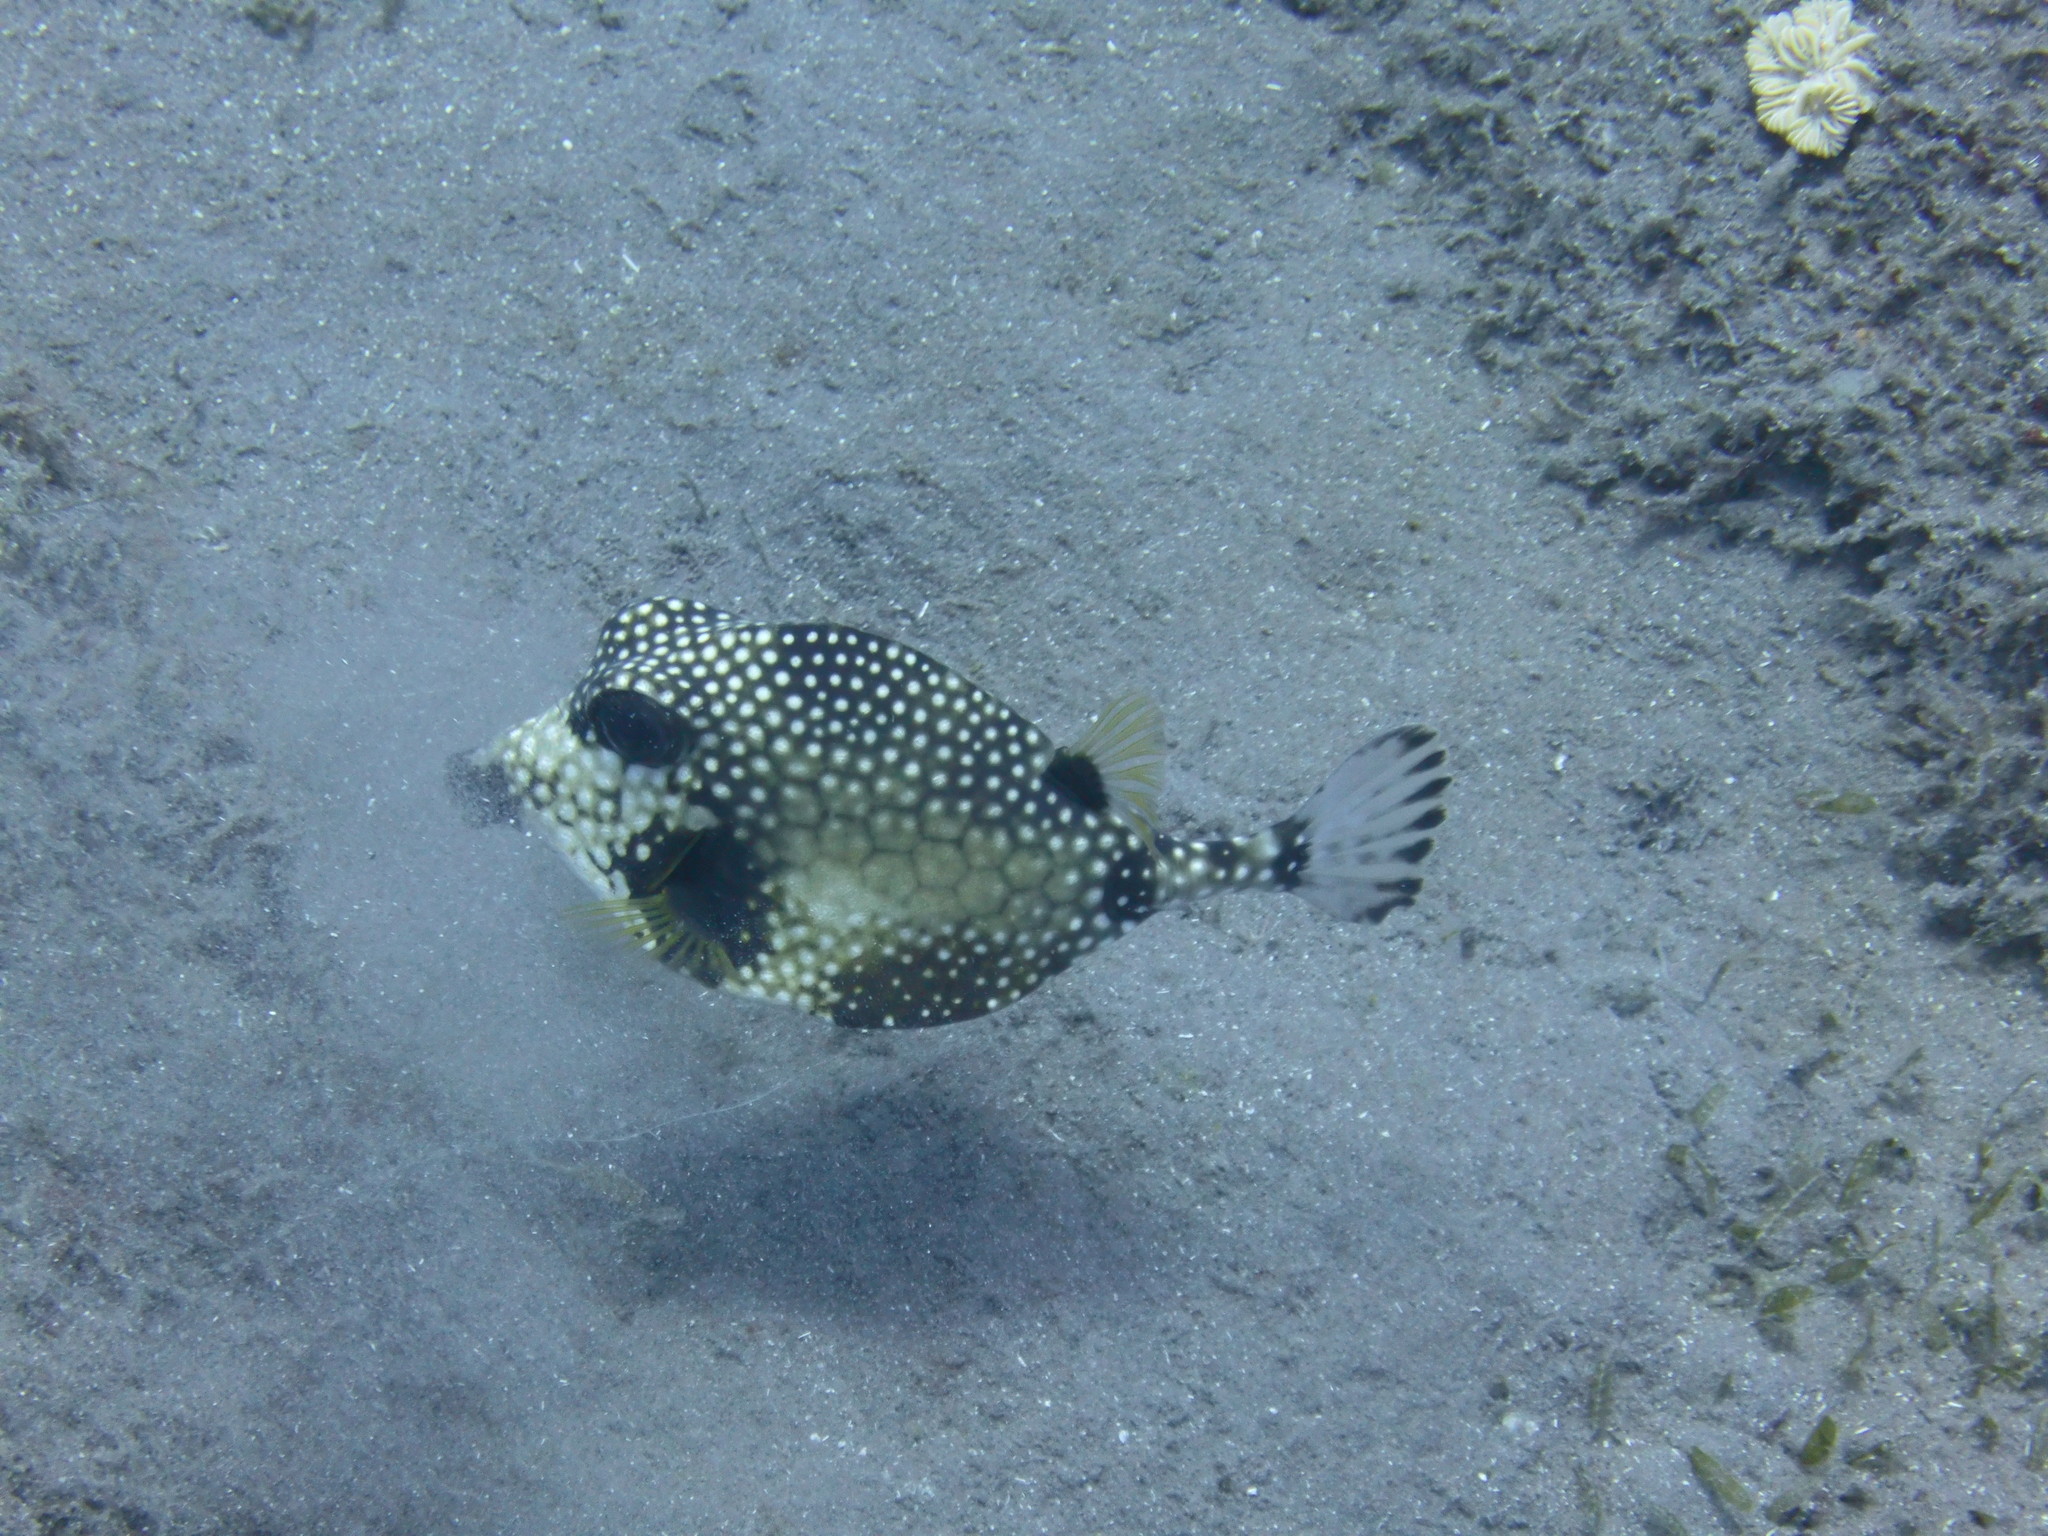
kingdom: Animalia
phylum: Chordata
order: Tetraodontiformes
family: Ostraciidae
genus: Lactophrys
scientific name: Lactophrys triqueter
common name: Smooth trunkfish
